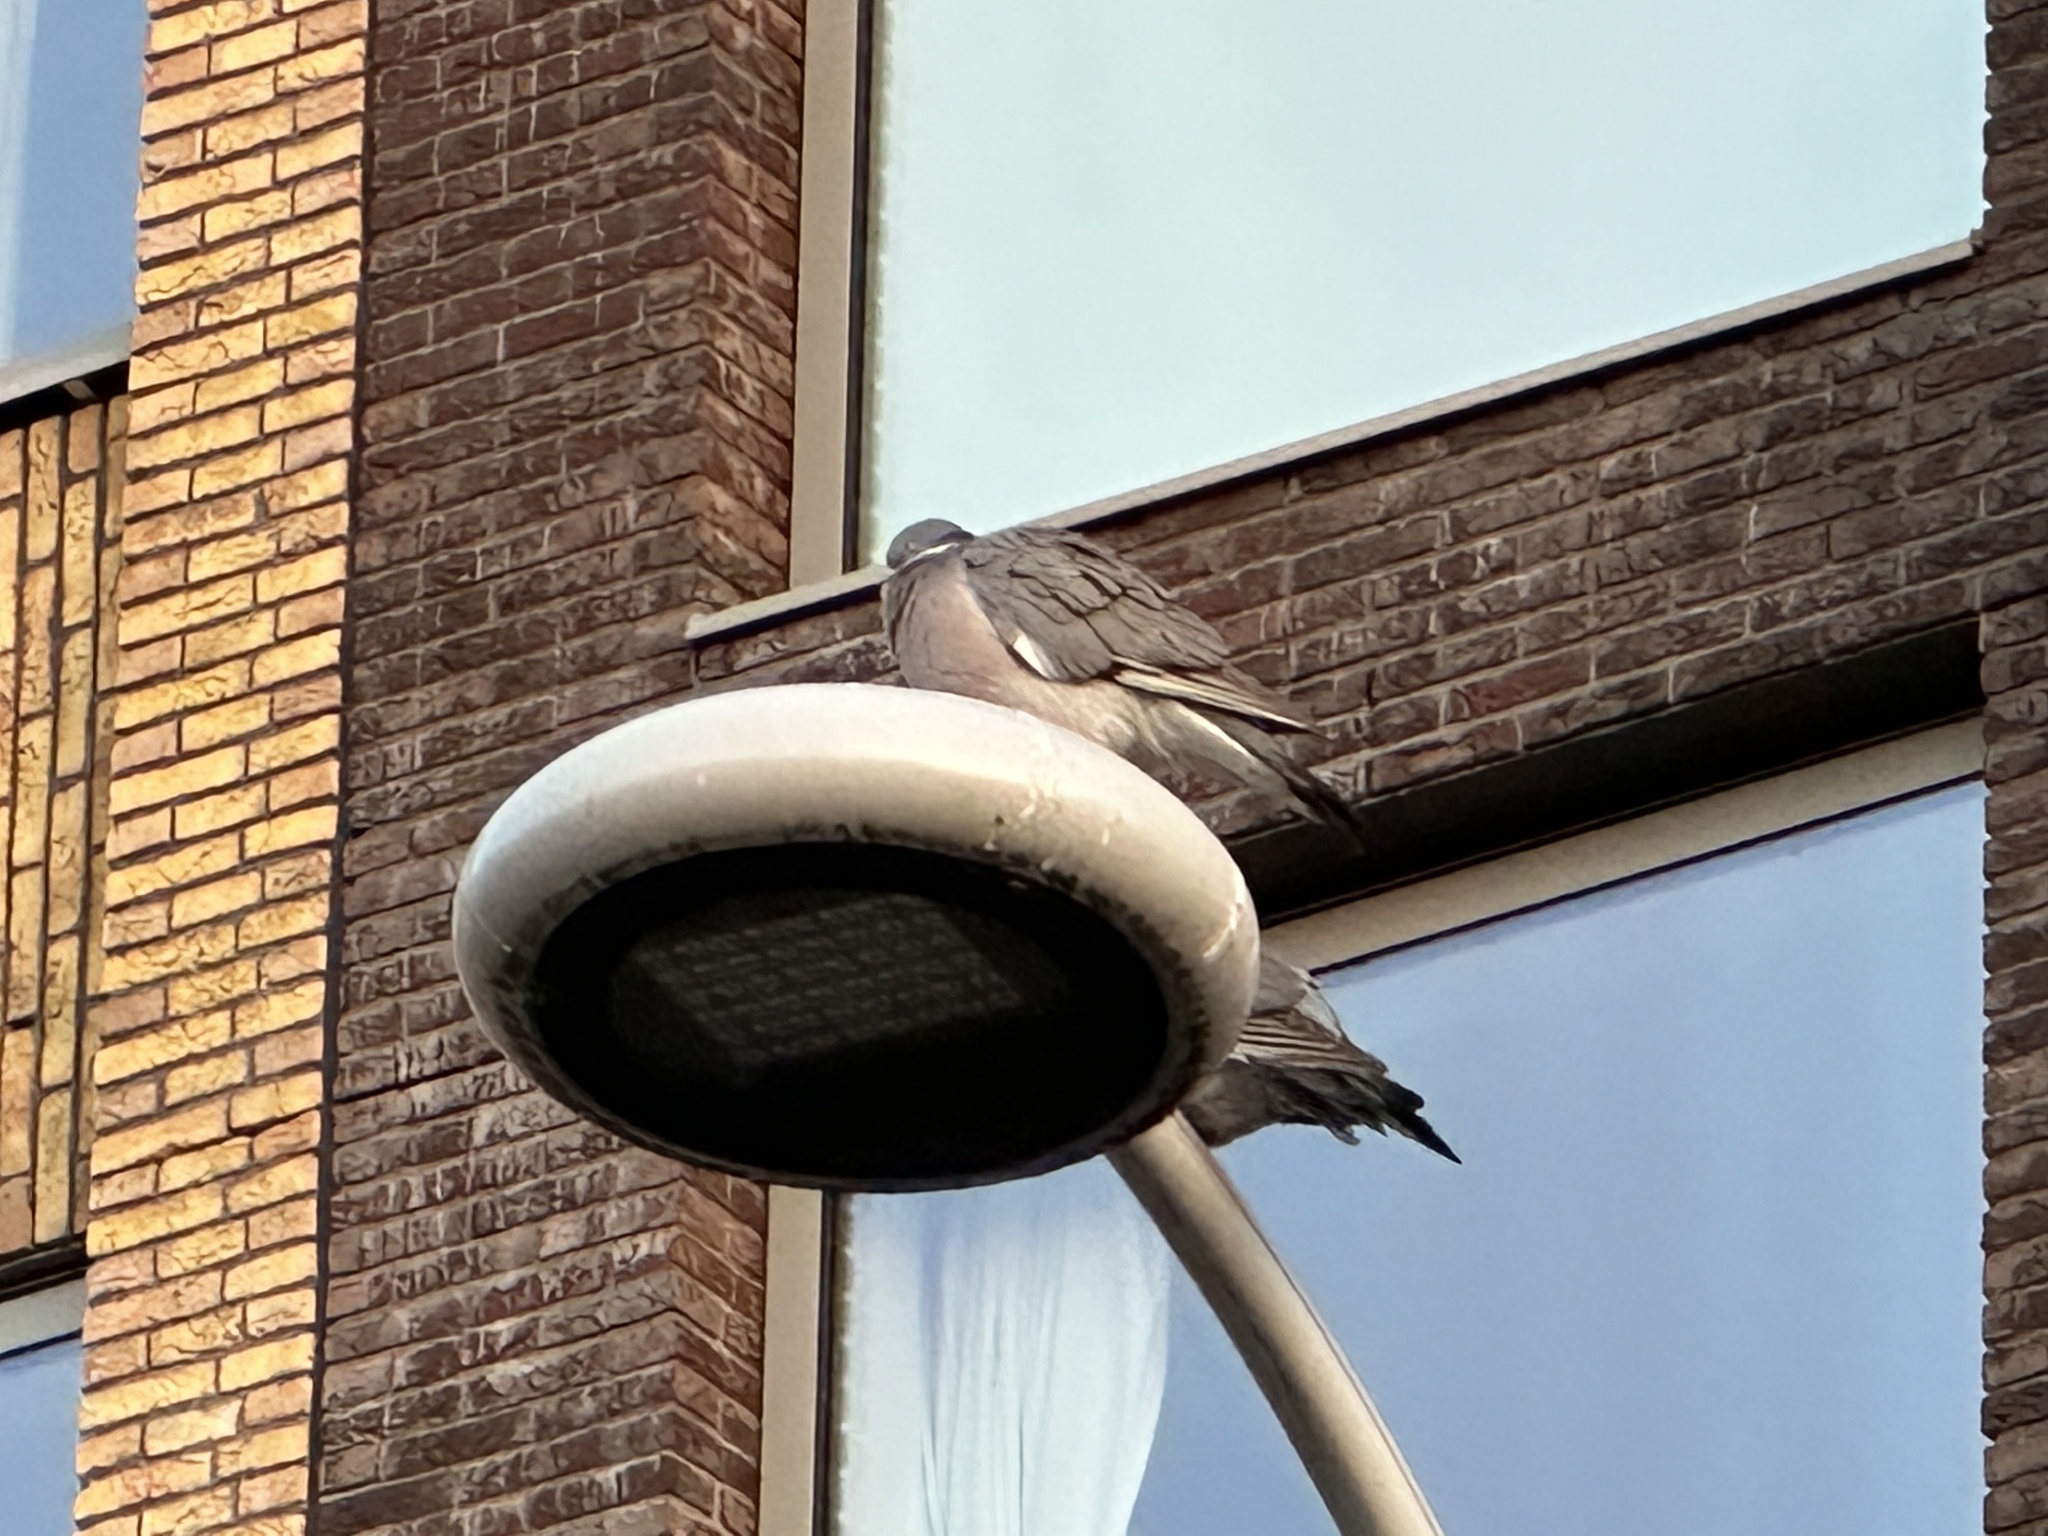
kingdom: Animalia
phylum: Chordata
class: Aves
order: Columbiformes
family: Columbidae
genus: Columba
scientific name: Columba palumbus
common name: Common wood pigeon
